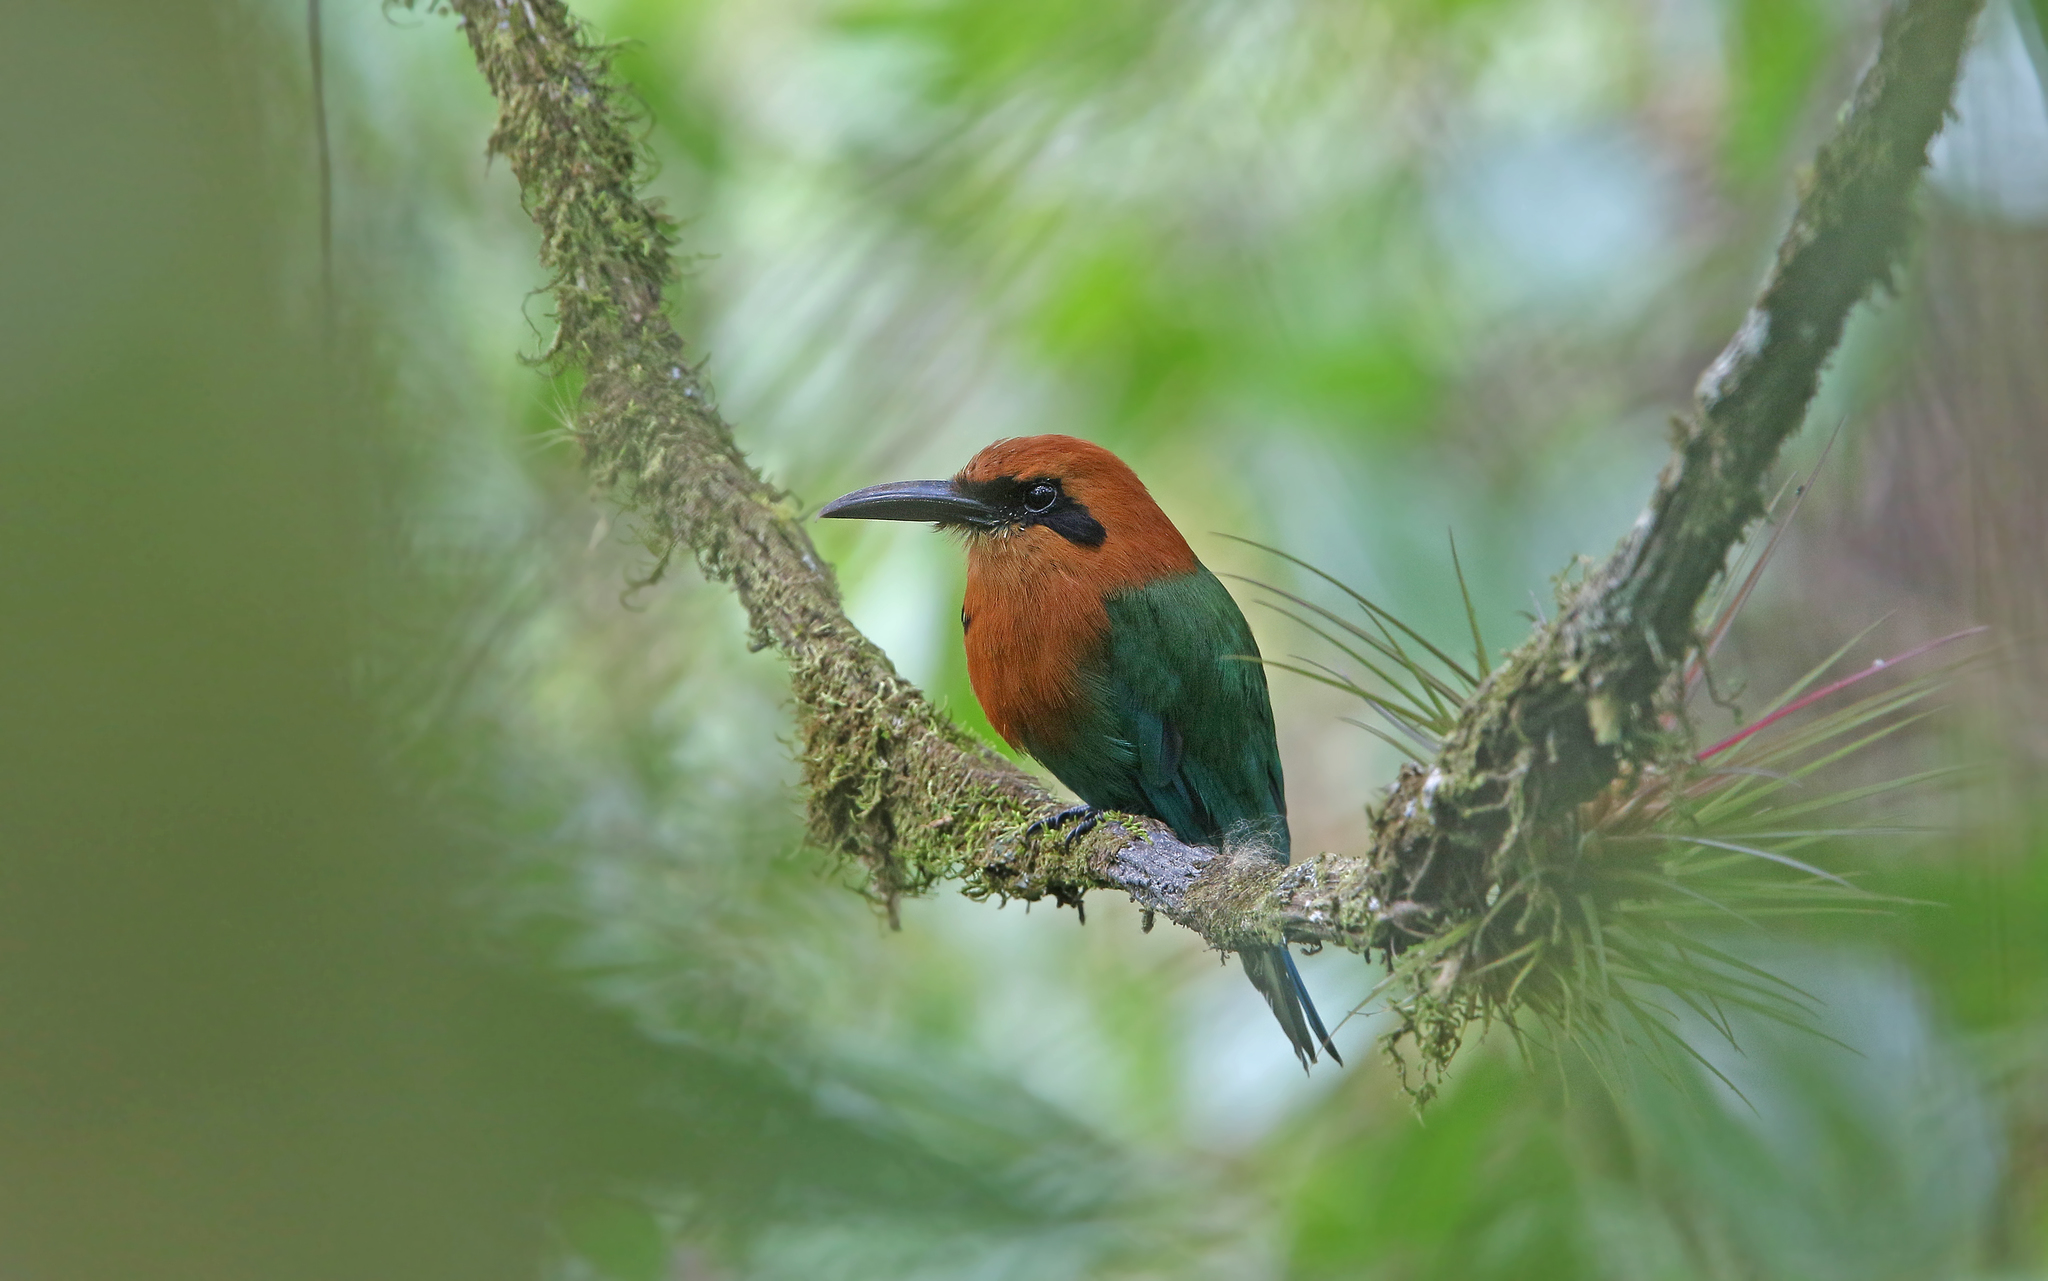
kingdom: Animalia
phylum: Chordata
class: Aves
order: Coraciiformes
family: Momotidae
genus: Electron
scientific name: Electron platyrhynchum
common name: Broad-billed motmot
